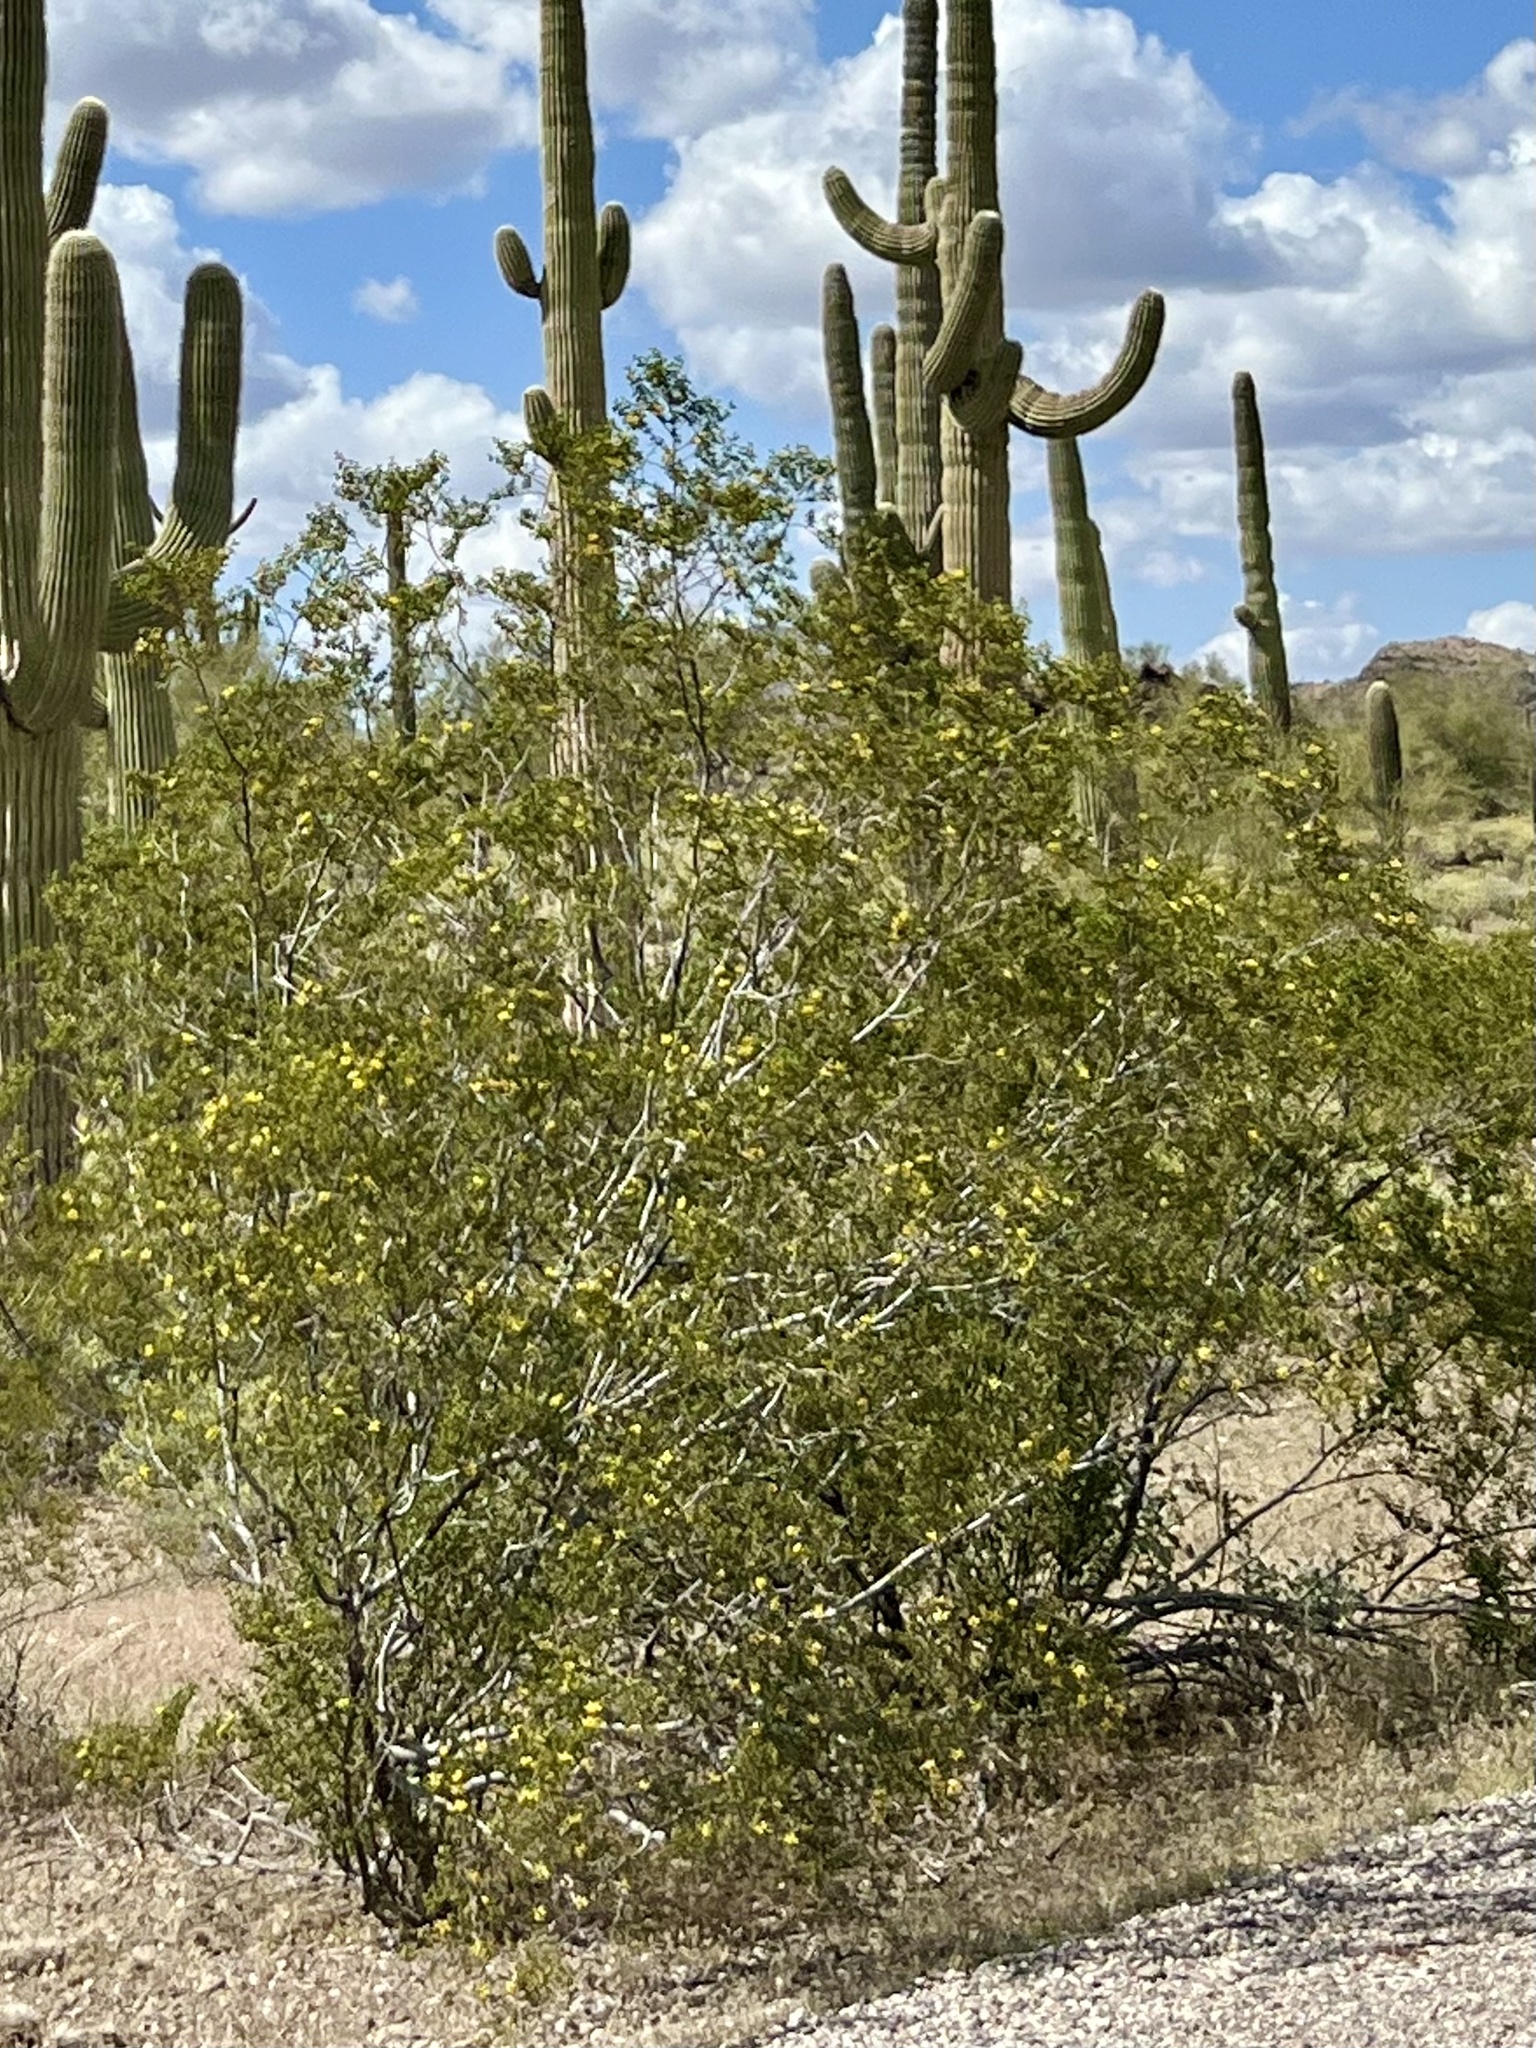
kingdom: Plantae
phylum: Tracheophyta
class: Magnoliopsida
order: Zygophyllales
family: Zygophyllaceae
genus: Larrea
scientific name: Larrea tridentata
